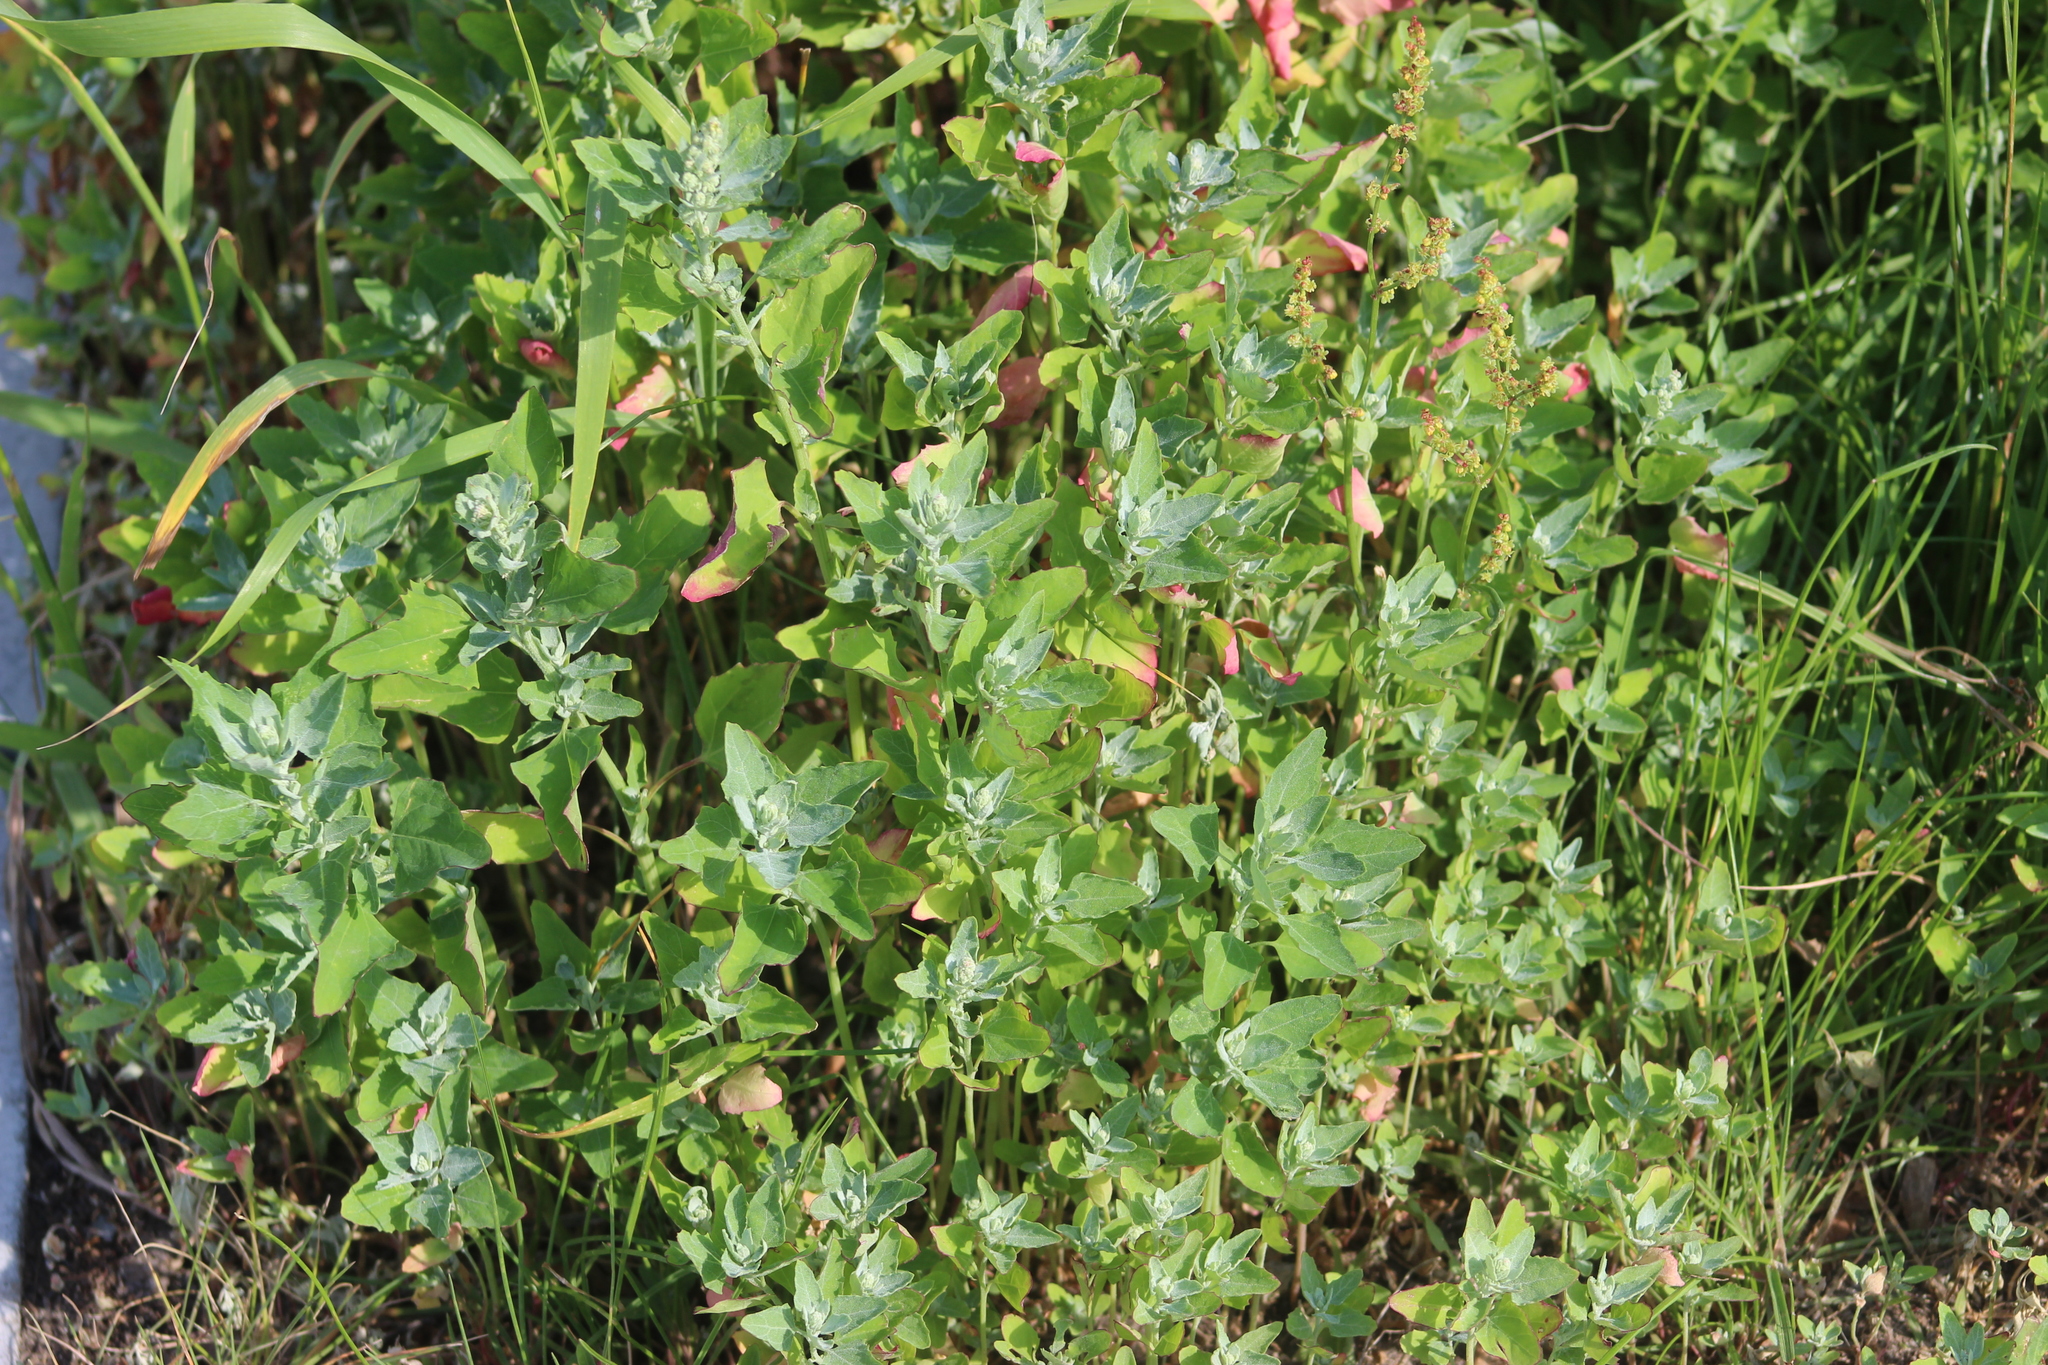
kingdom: Plantae
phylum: Tracheophyta
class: Magnoliopsida
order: Caryophyllales
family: Amaranthaceae
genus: Chenopodium
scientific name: Chenopodium album
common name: Fat-hen
